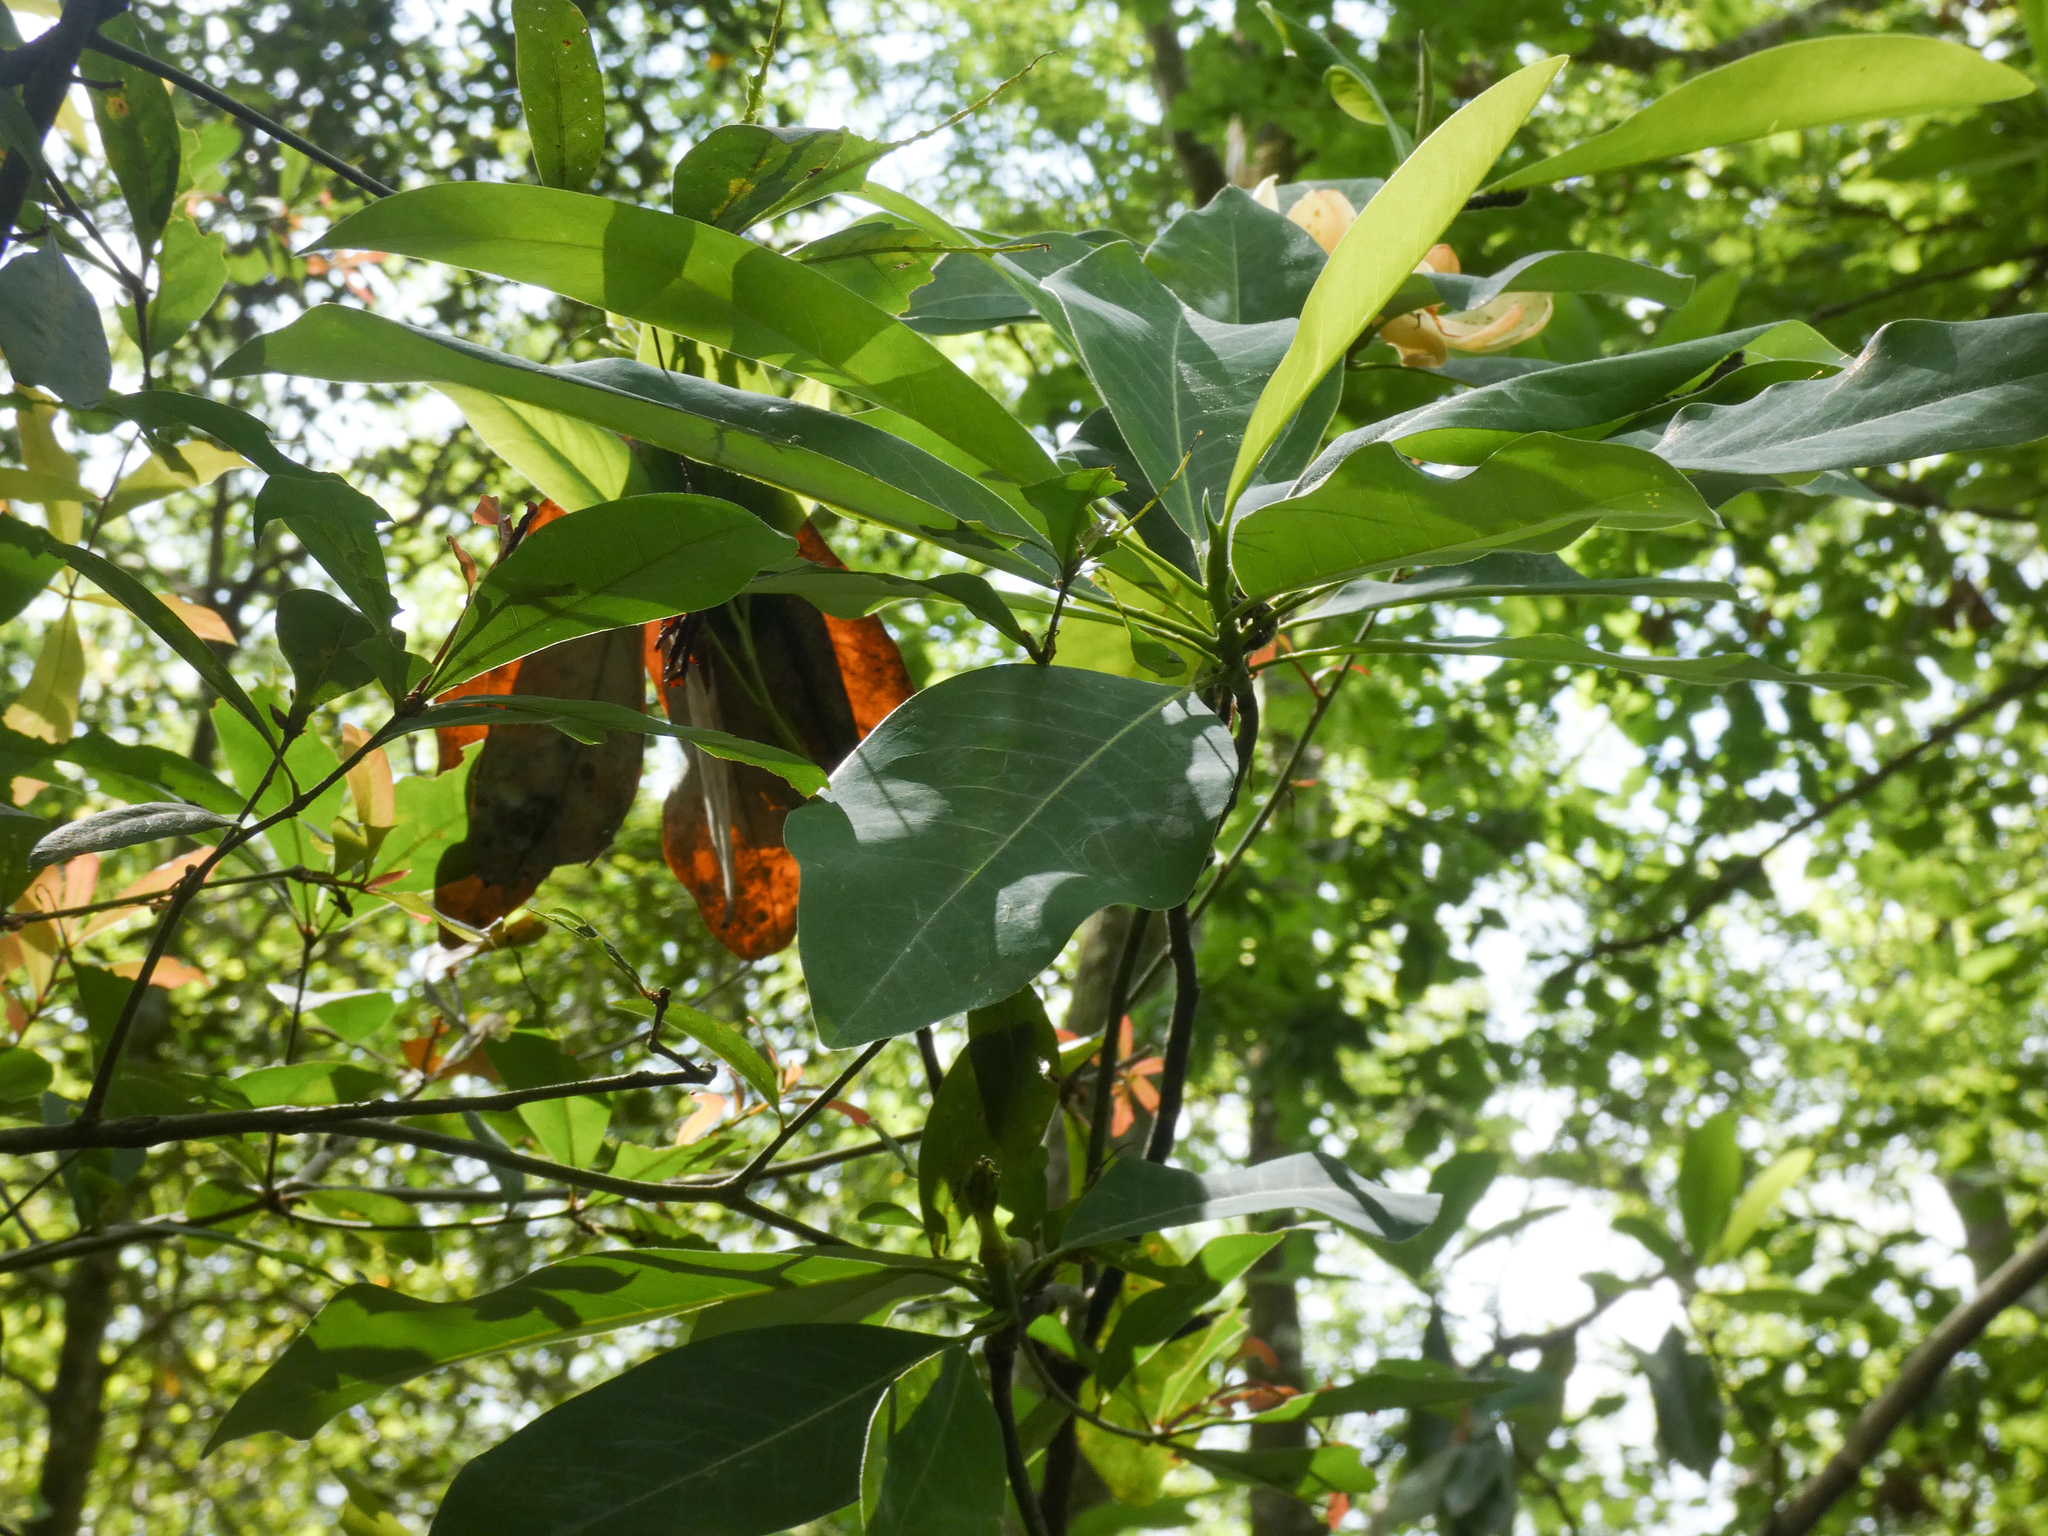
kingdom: Plantae
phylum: Tracheophyta
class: Magnoliopsida
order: Magnoliales
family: Magnoliaceae
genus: Magnolia
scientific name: Magnolia virginiana
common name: Swamp bay
